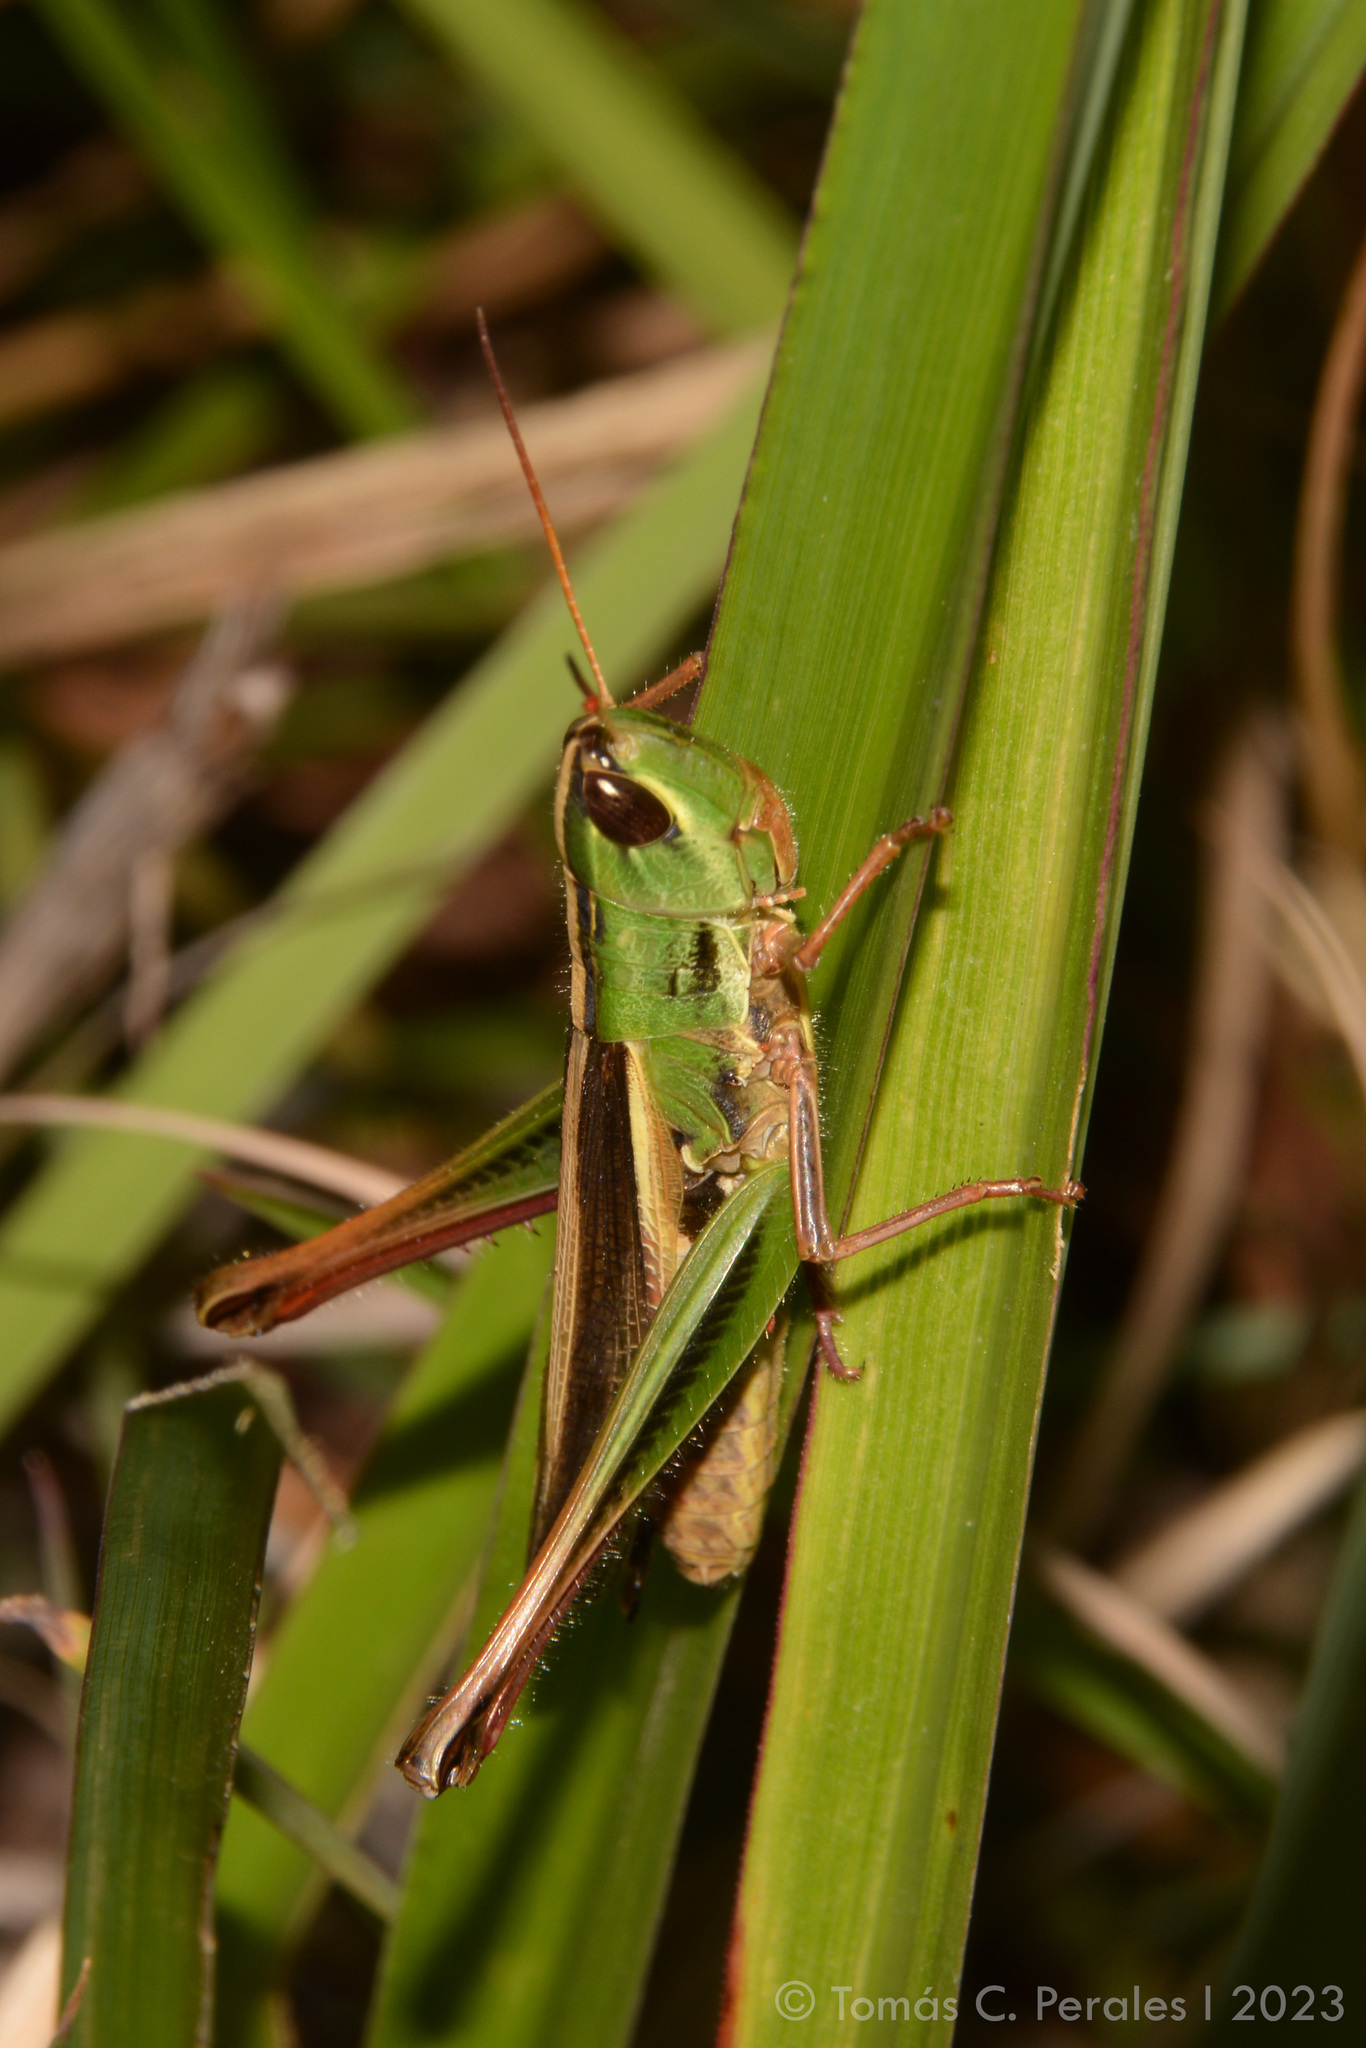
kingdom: Animalia
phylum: Arthropoda
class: Insecta
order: Orthoptera
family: Acrididae
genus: Staurorhectus
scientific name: Staurorhectus longicornis
